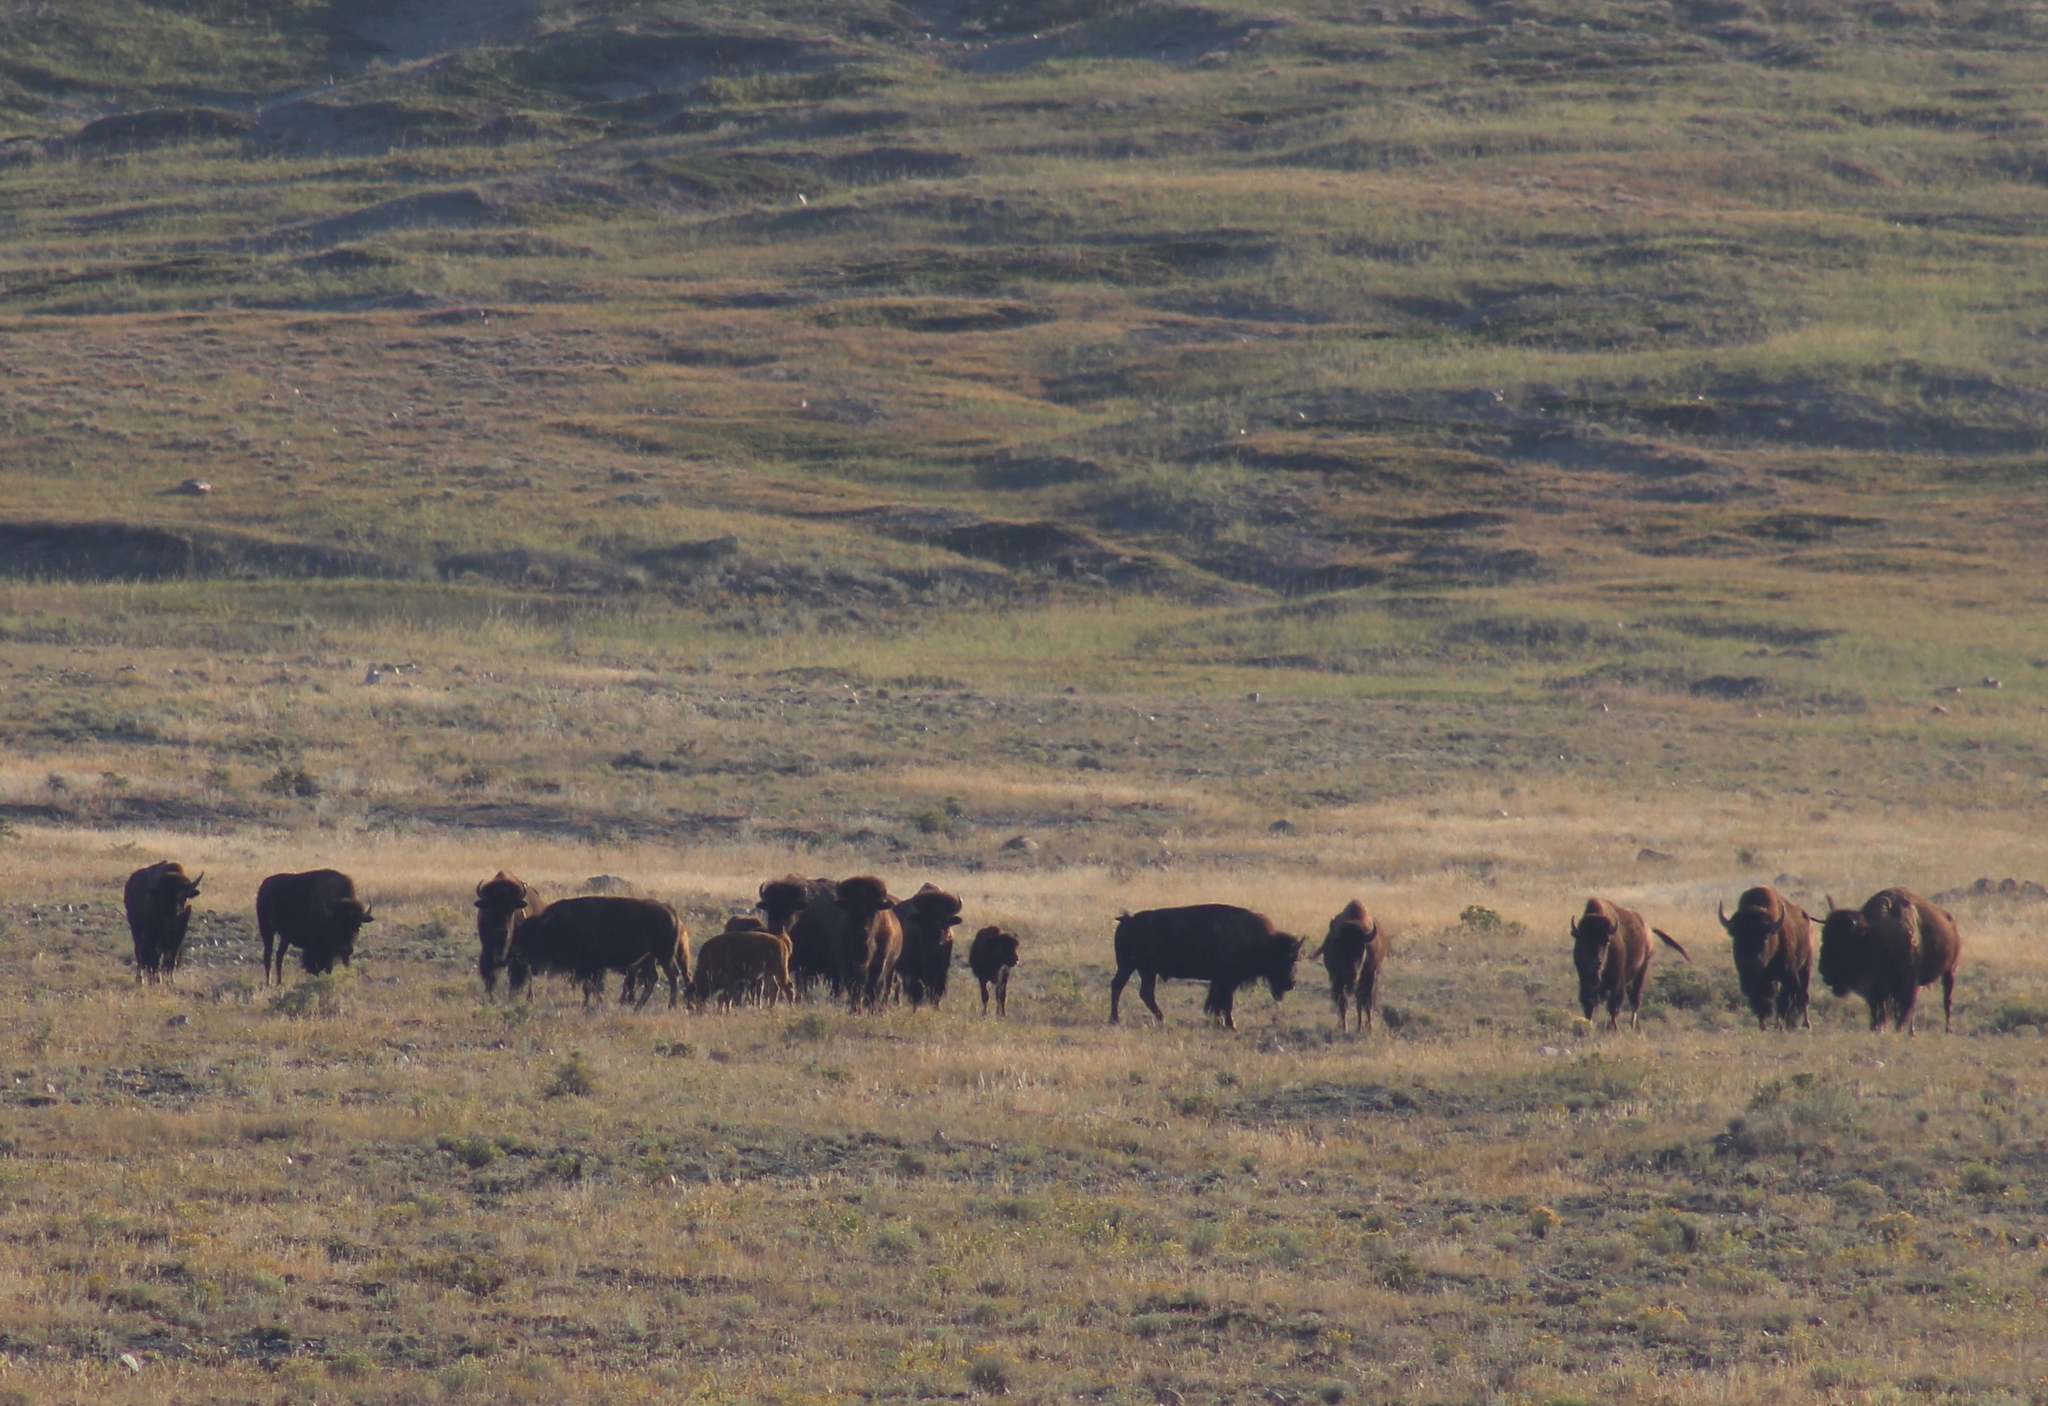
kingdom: Animalia
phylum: Chordata
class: Mammalia
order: Artiodactyla
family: Bovidae
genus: Bison
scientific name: Bison bison
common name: American bison
